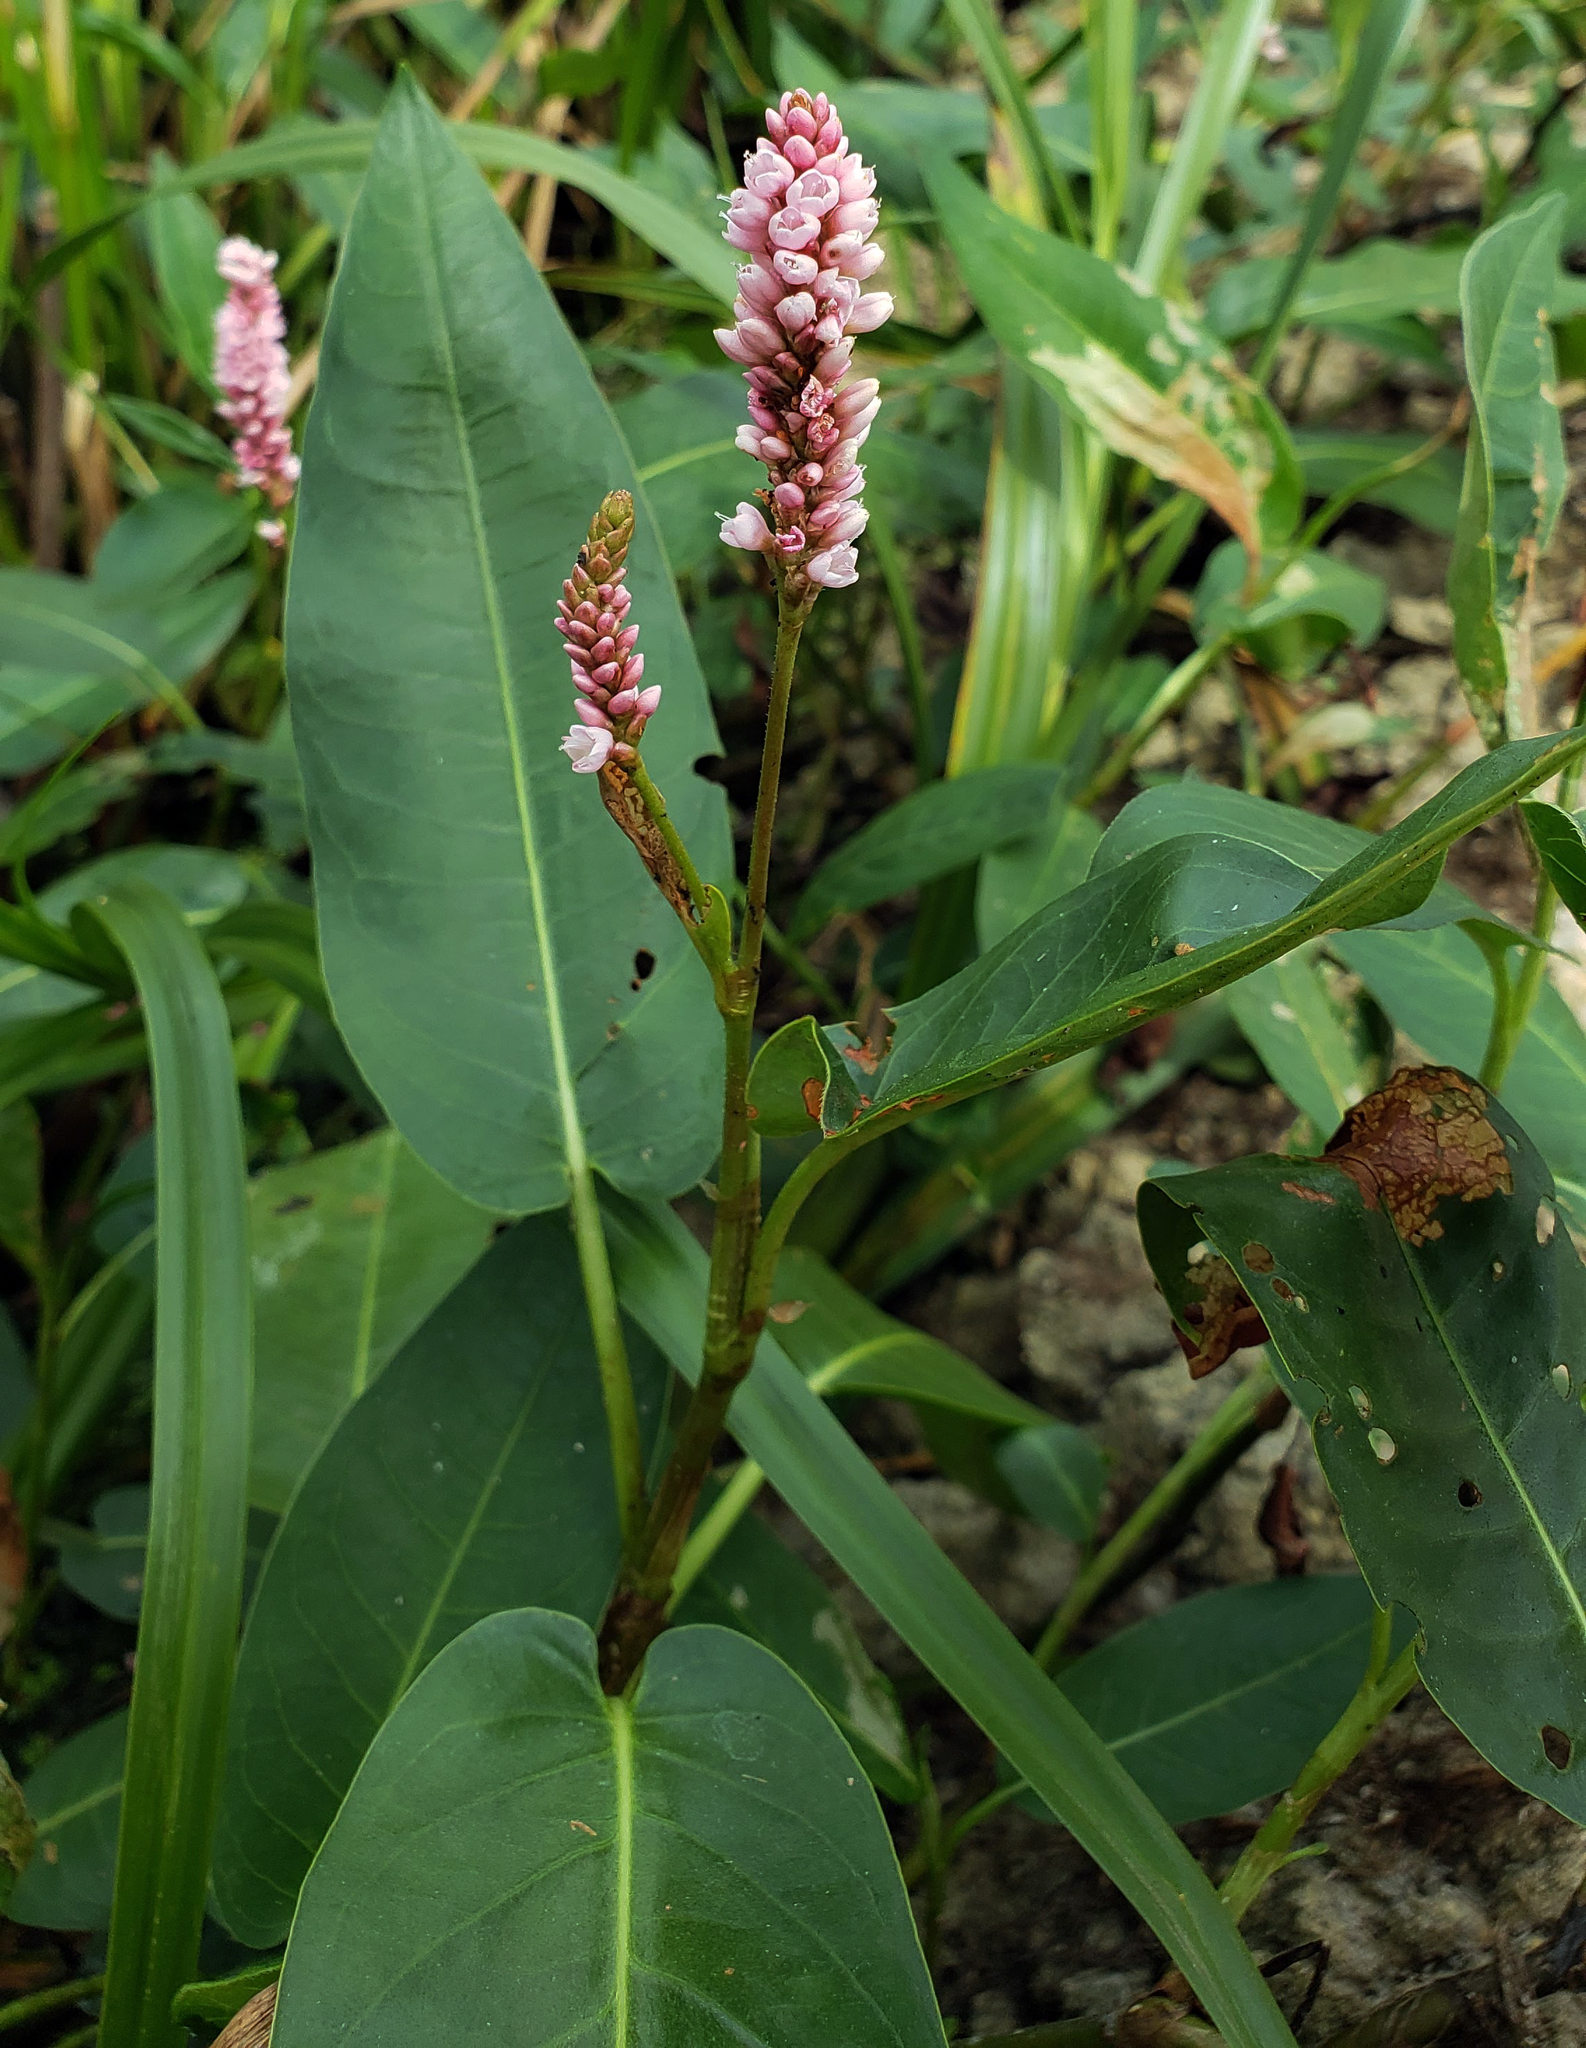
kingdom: Plantae
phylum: Tracheophyta
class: Magnoliopsida
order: Caryophyllales
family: Polygonaceae
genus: Persicaria
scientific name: Persicaria amphibia
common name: Amphibious bistort
